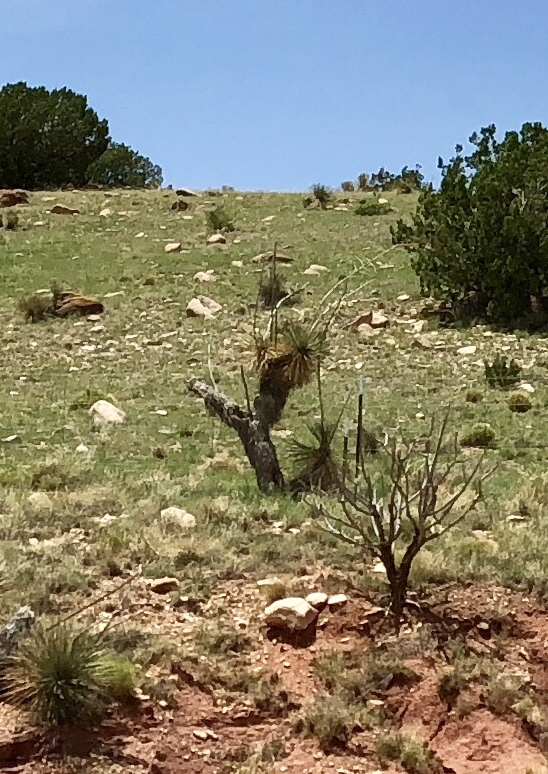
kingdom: Plantae
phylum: Tracheophyta
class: Liliopsida
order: Asparagales
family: Asparagaceae
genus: Yucca
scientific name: Yucca elata
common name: Palmella
